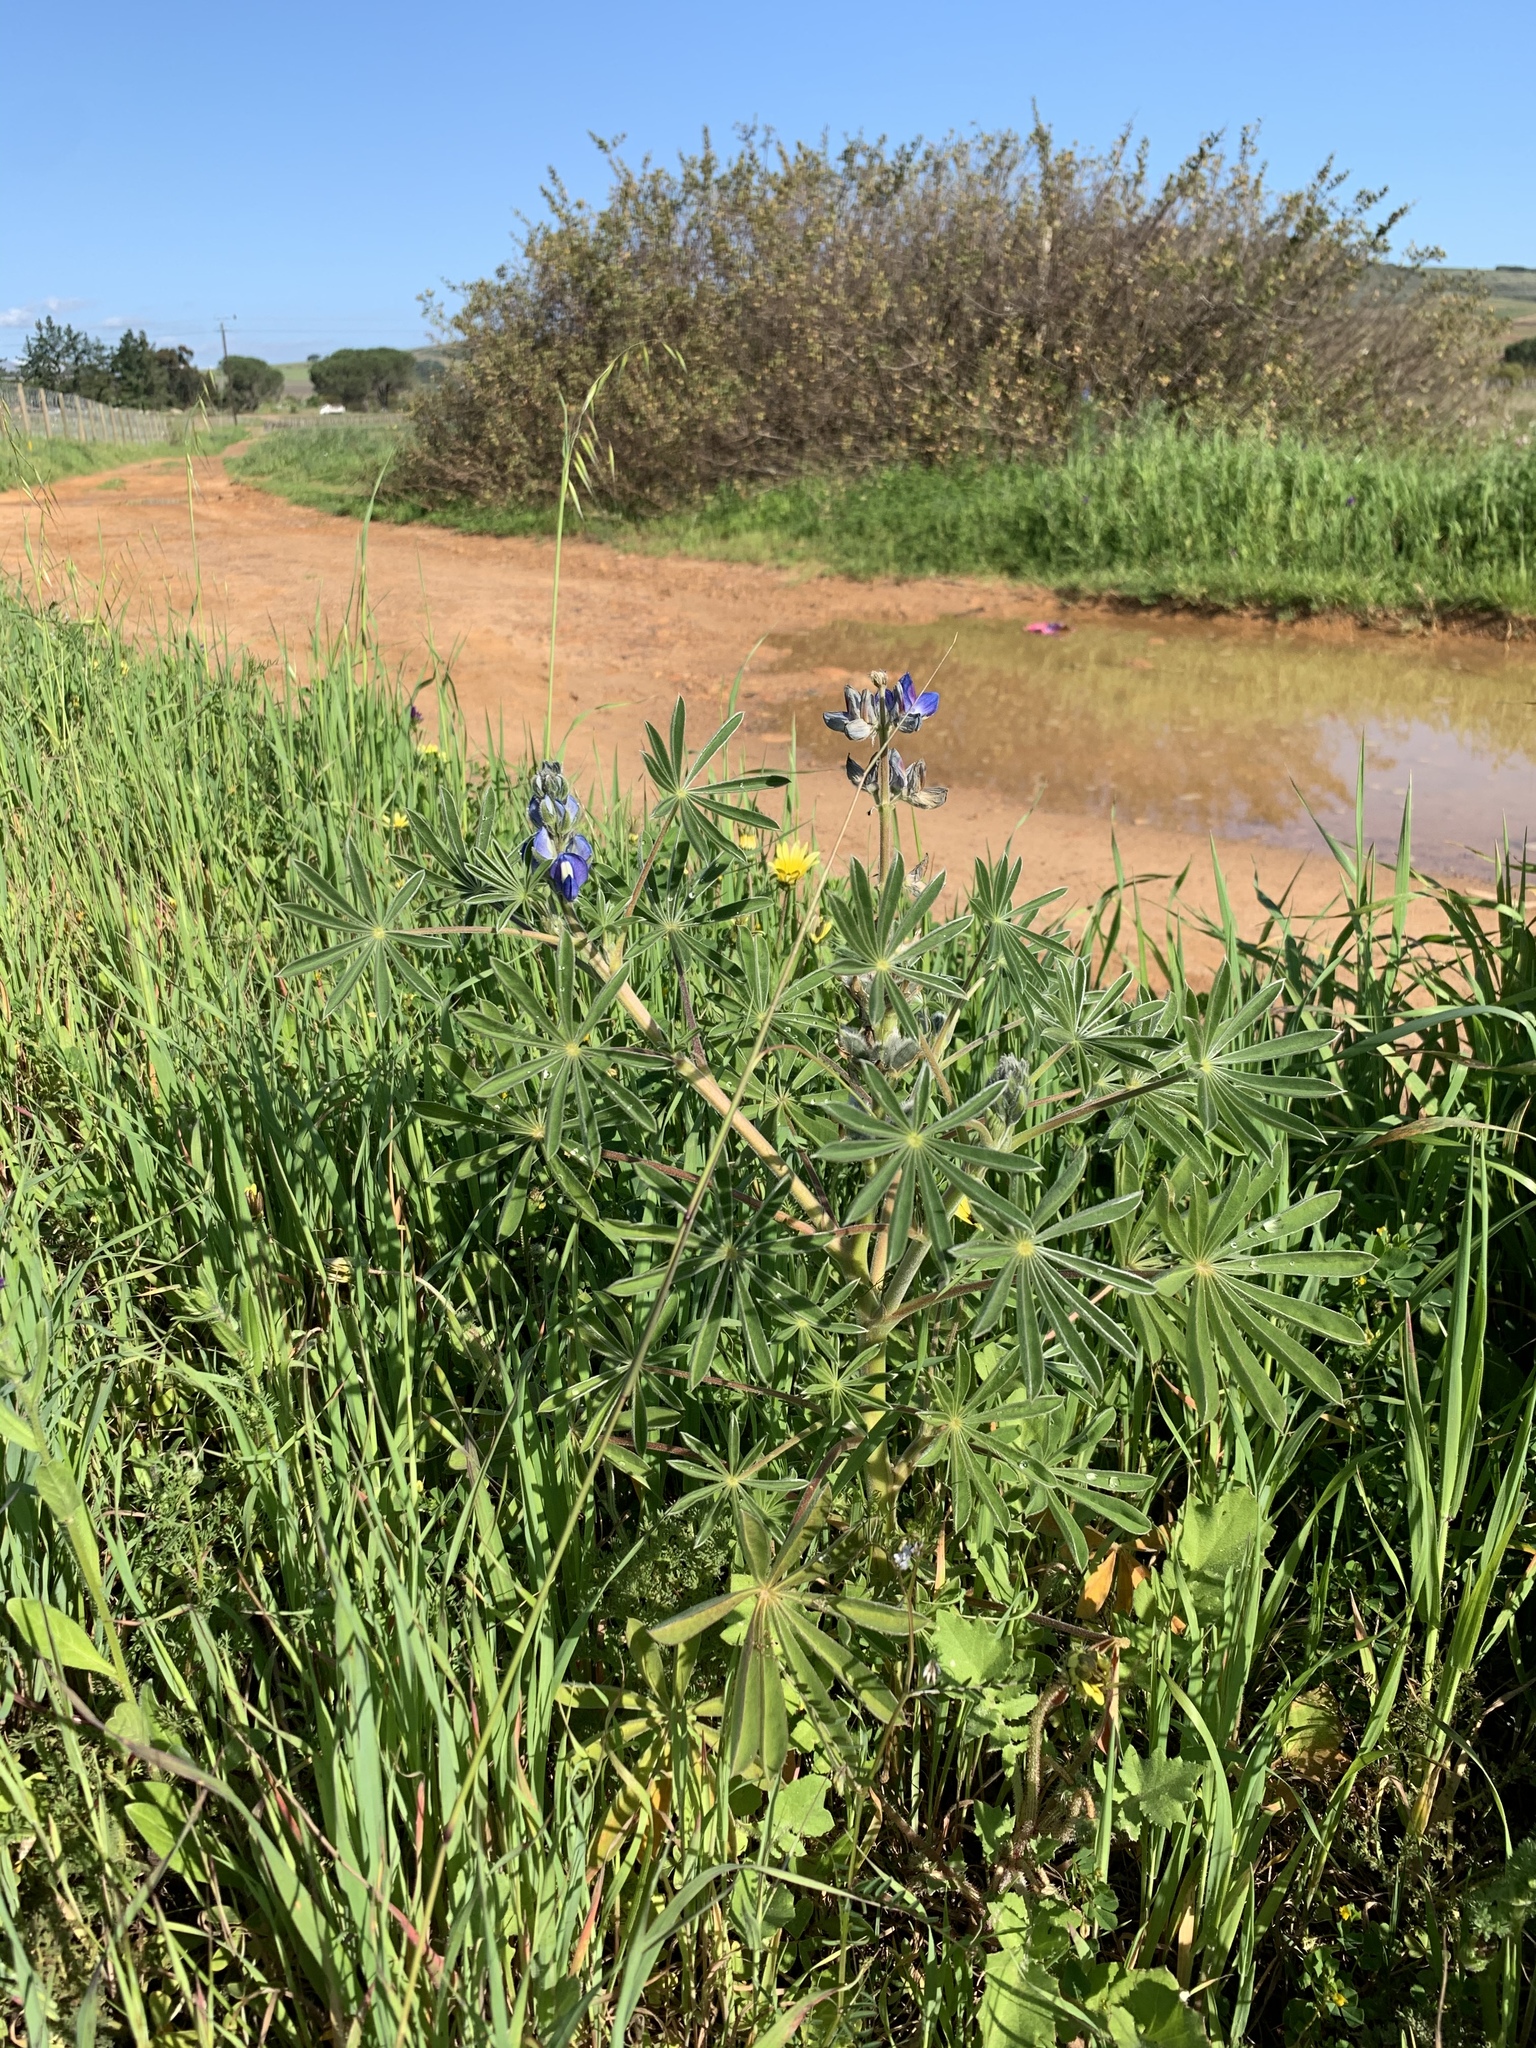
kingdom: Plantae
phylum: Tracheophyta
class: Magnoliopsida
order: Fabales
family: Fabaceae
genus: Lupinus
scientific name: Lupinus cosentinii
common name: Hairy blue lupin
